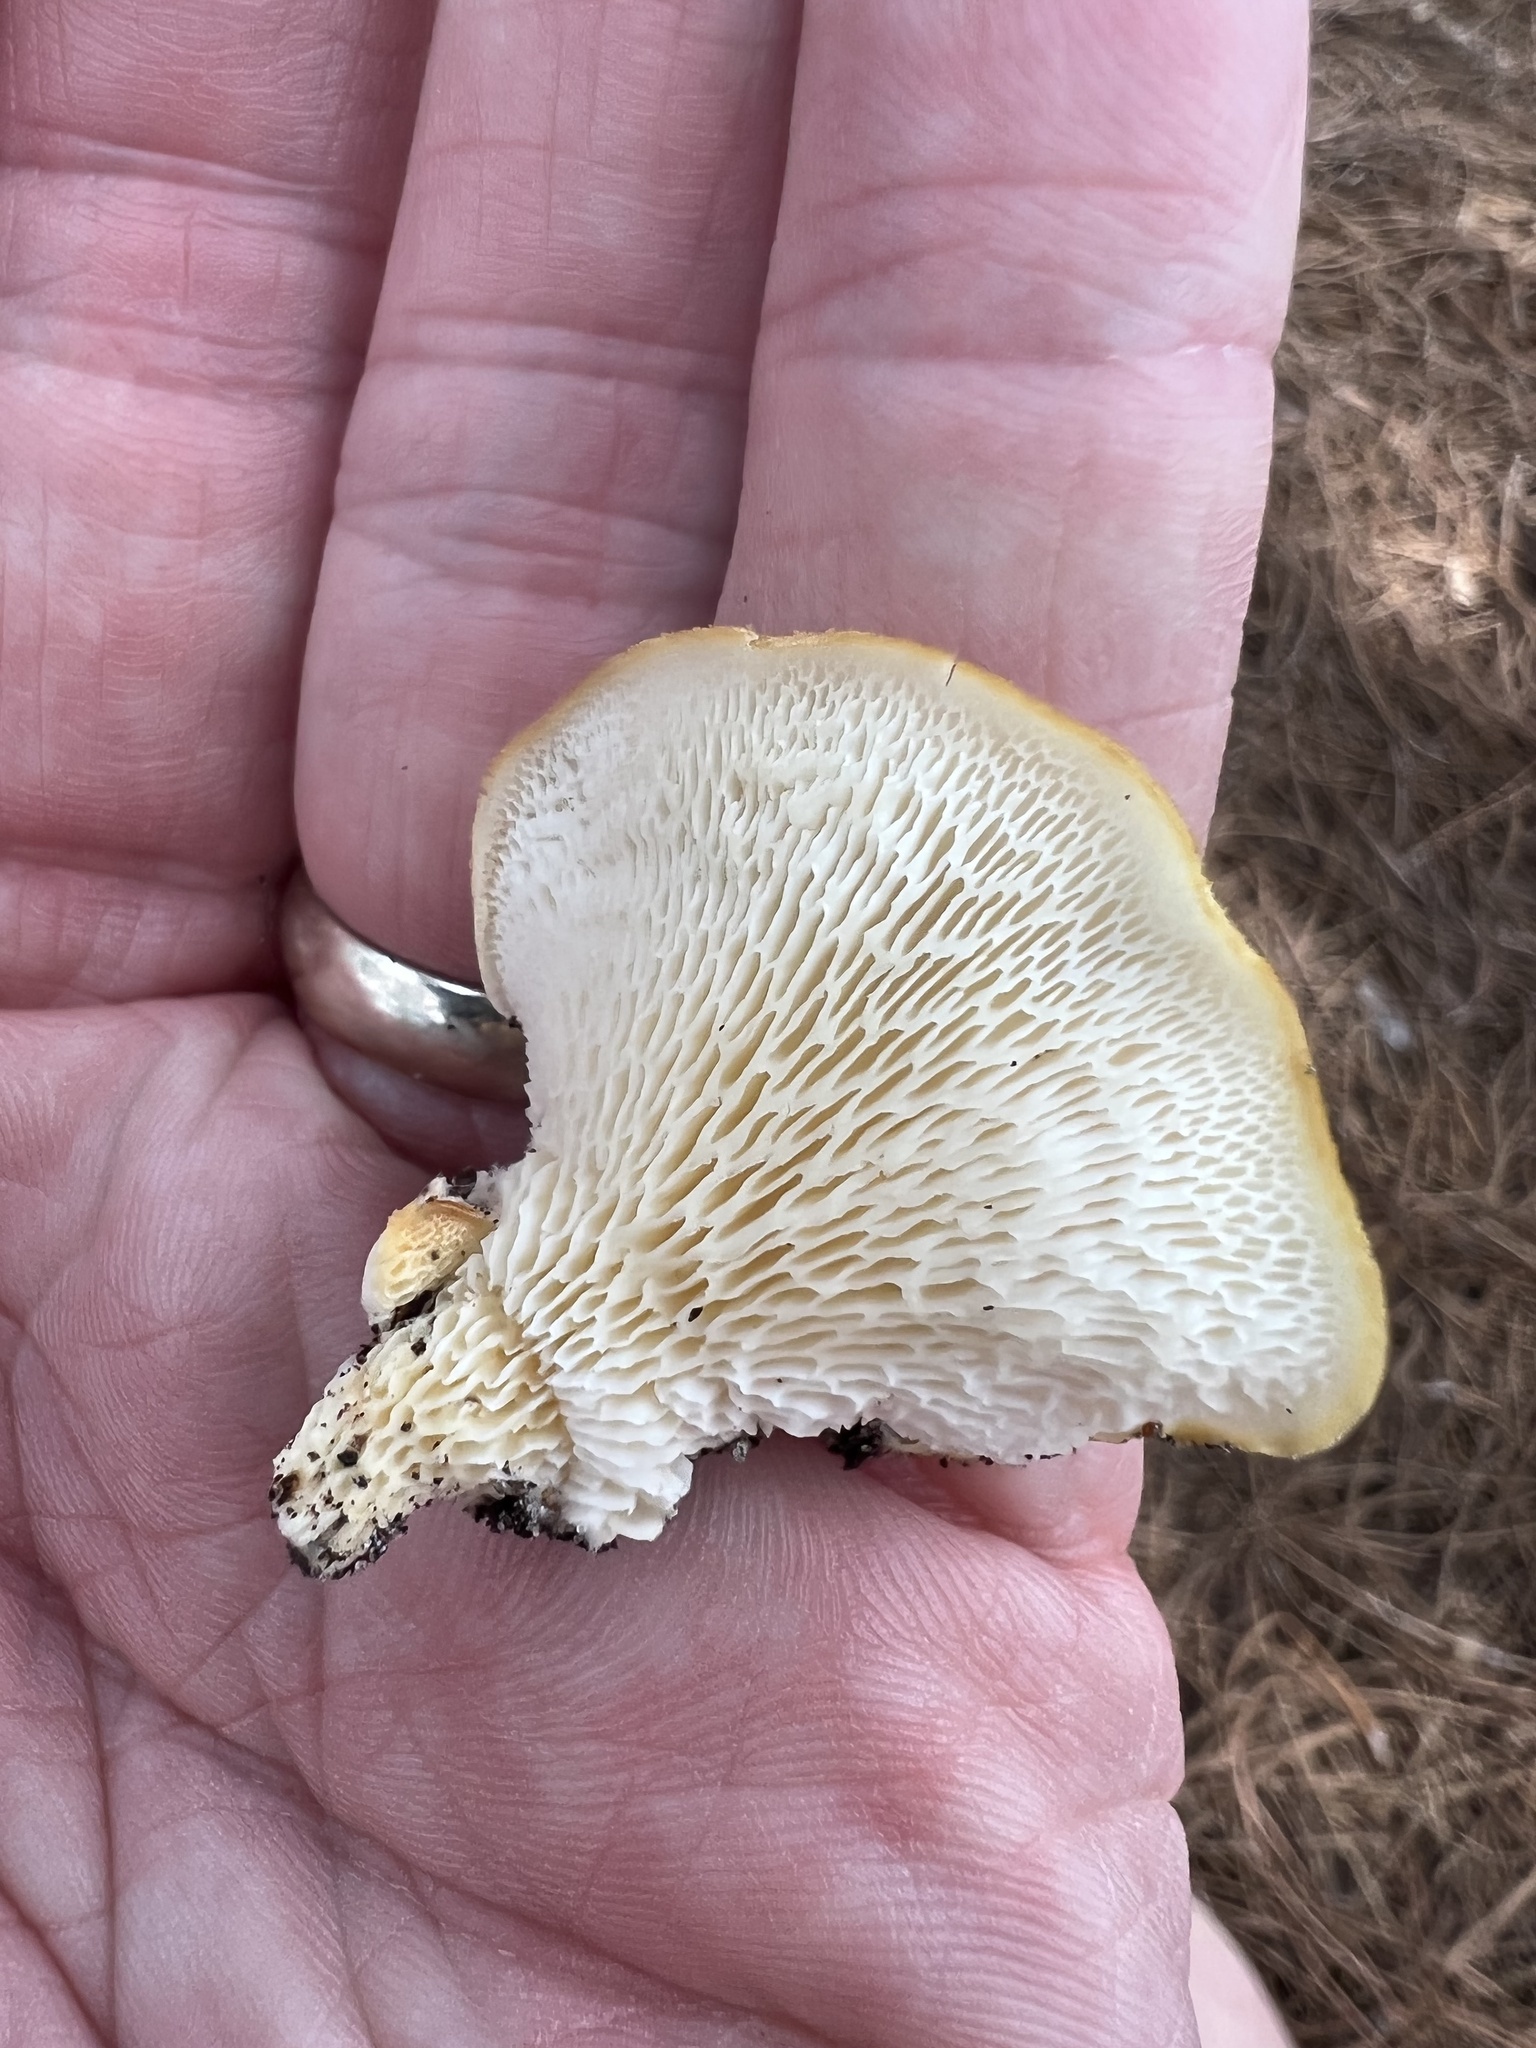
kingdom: Fungi
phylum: Basidiomycota
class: Agaricomycetes
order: Polyporales
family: Polyporaceae
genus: Favolus
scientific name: Favolus tenuiculus
